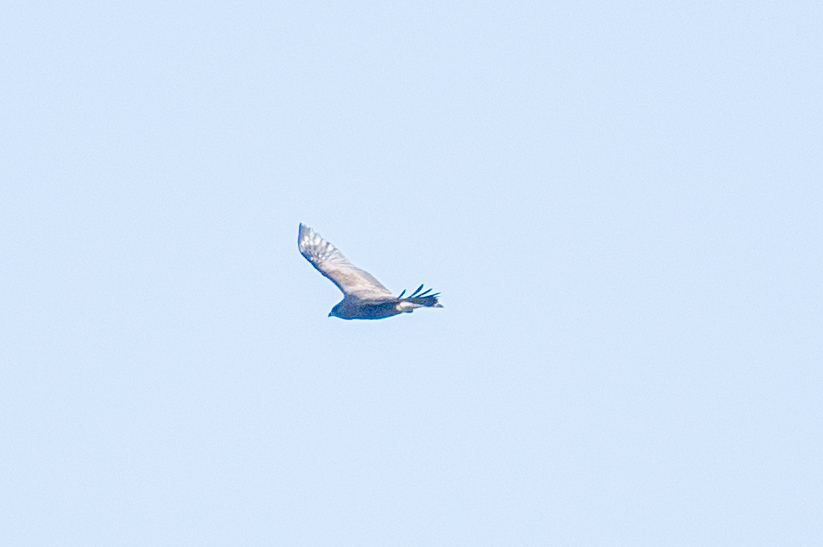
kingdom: Animalia
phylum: Chordata
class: Aves
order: Accipitriformes
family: Accipitridae
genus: Buteo
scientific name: Buteo swainsoni
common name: Swainson's hawk
